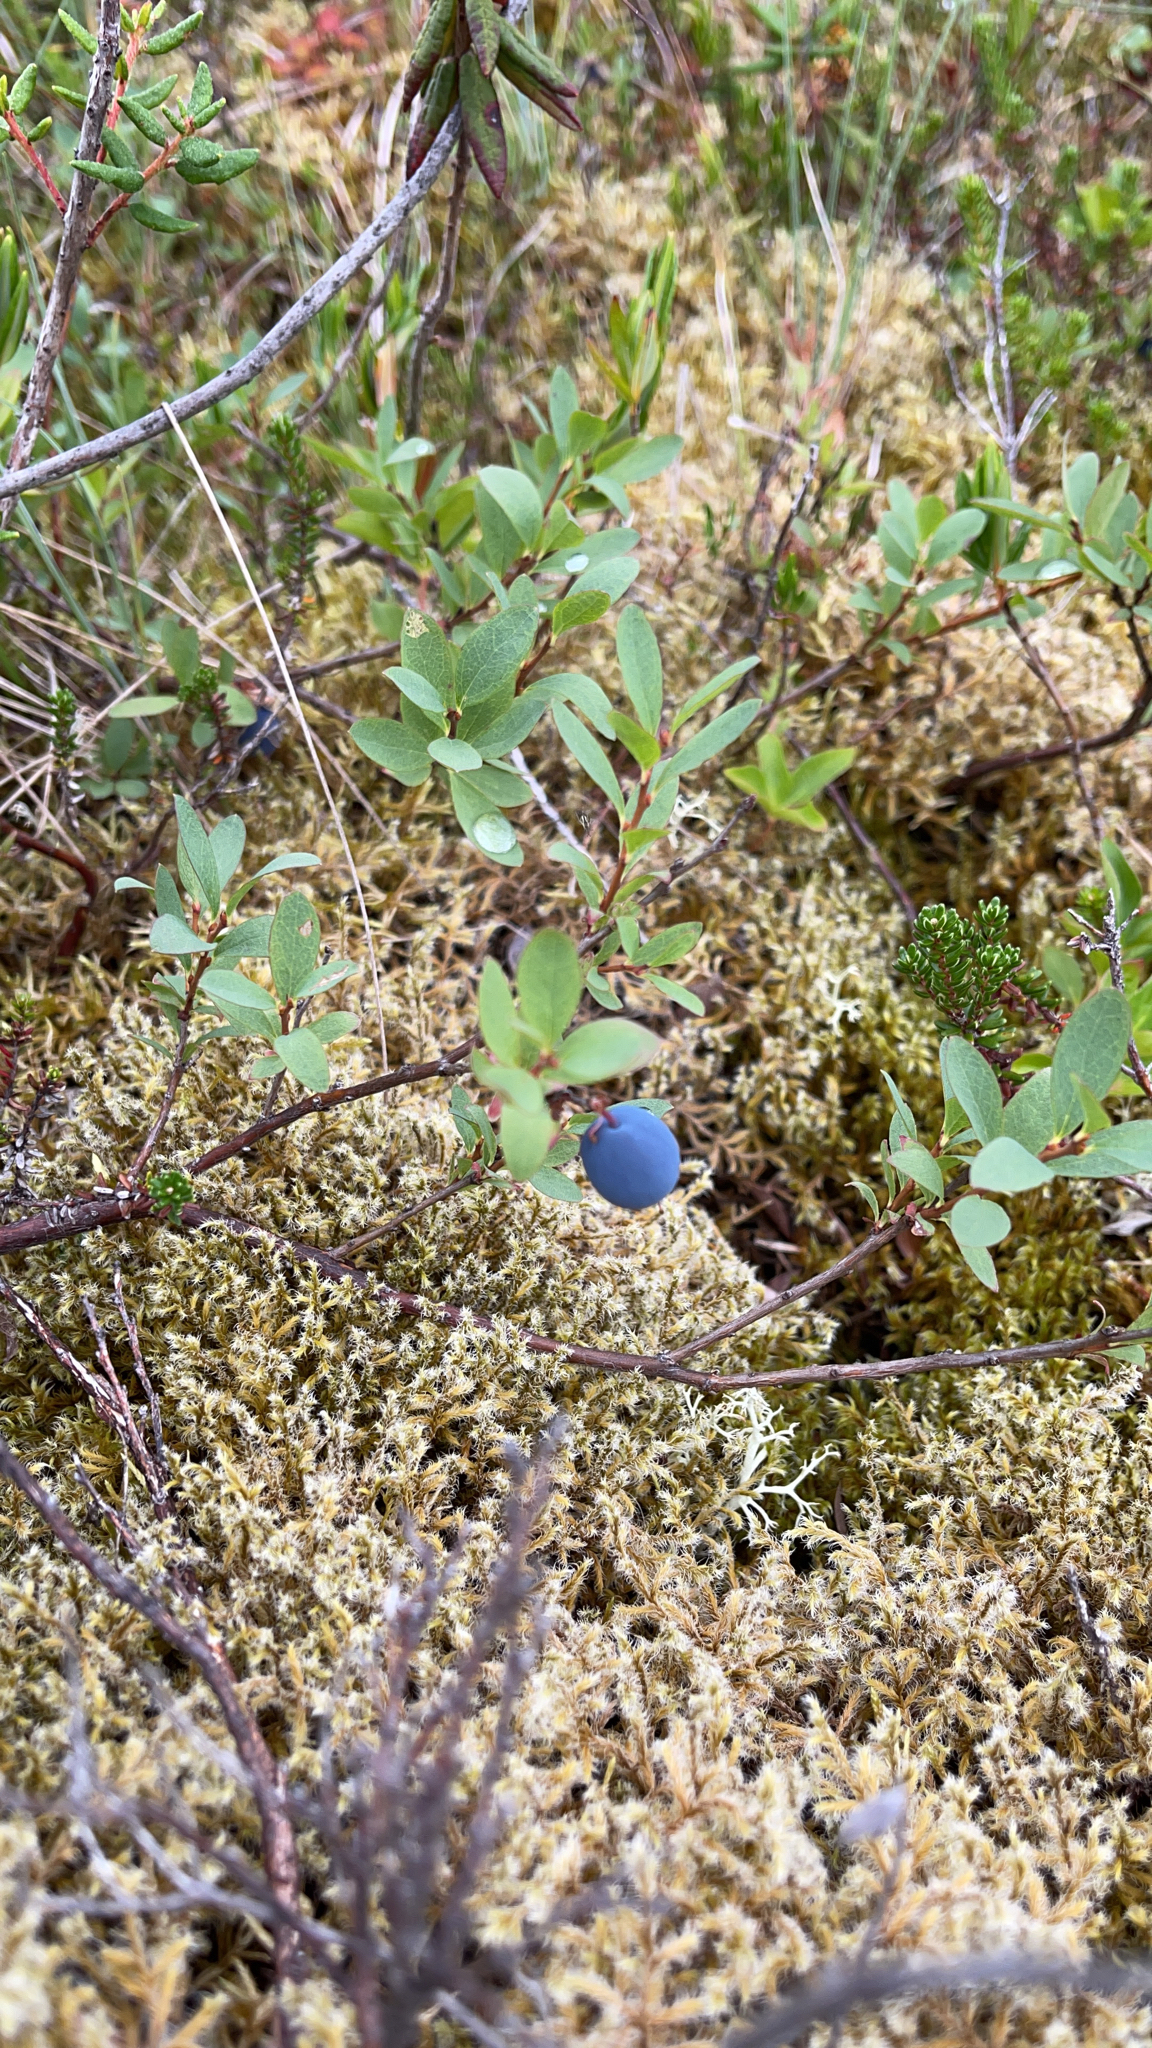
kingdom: Plantae
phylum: Tracheophyta
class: Magnoliopsida
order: Ericales
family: Ericaceae
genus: Vaccinium
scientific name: Vaccinium uliginosum
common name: Bog bilberry
